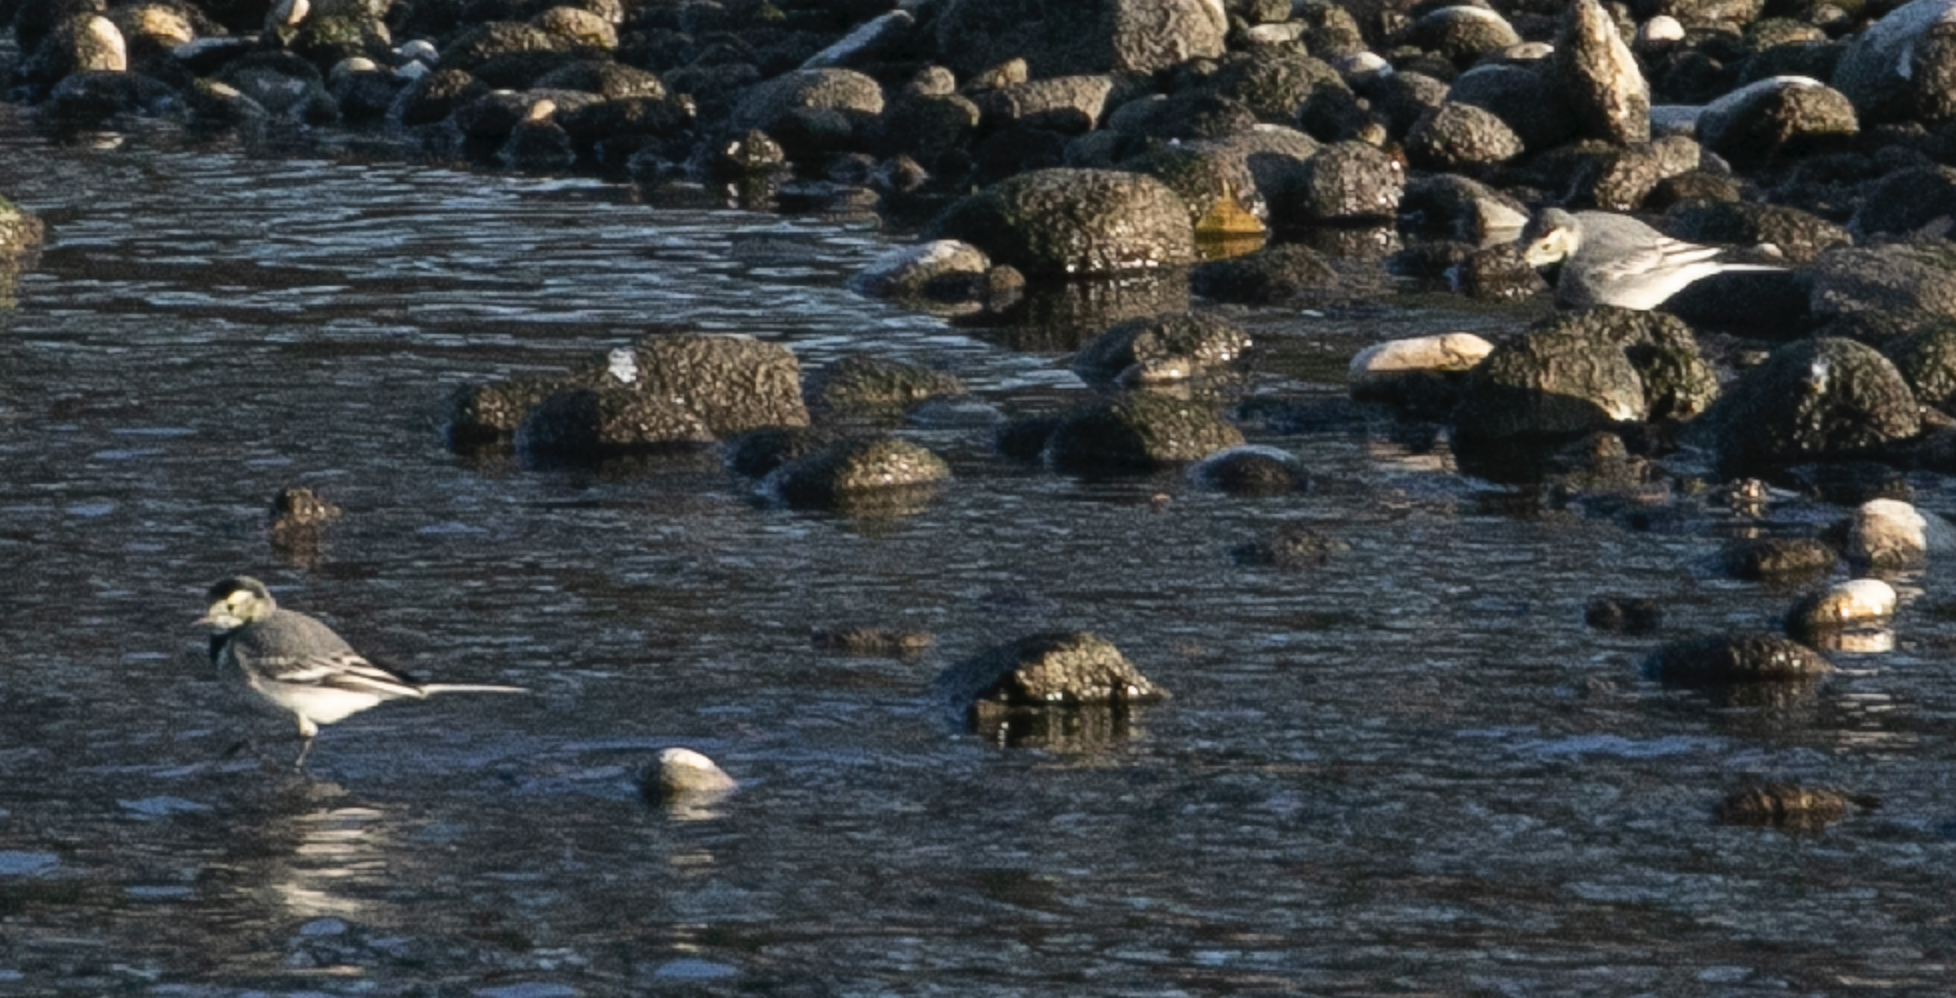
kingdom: Animalia
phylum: Chordata
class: Aves
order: Passeriformes
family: Motacillidae
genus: Motacilla
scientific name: Motacilla alba
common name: White wagtail
